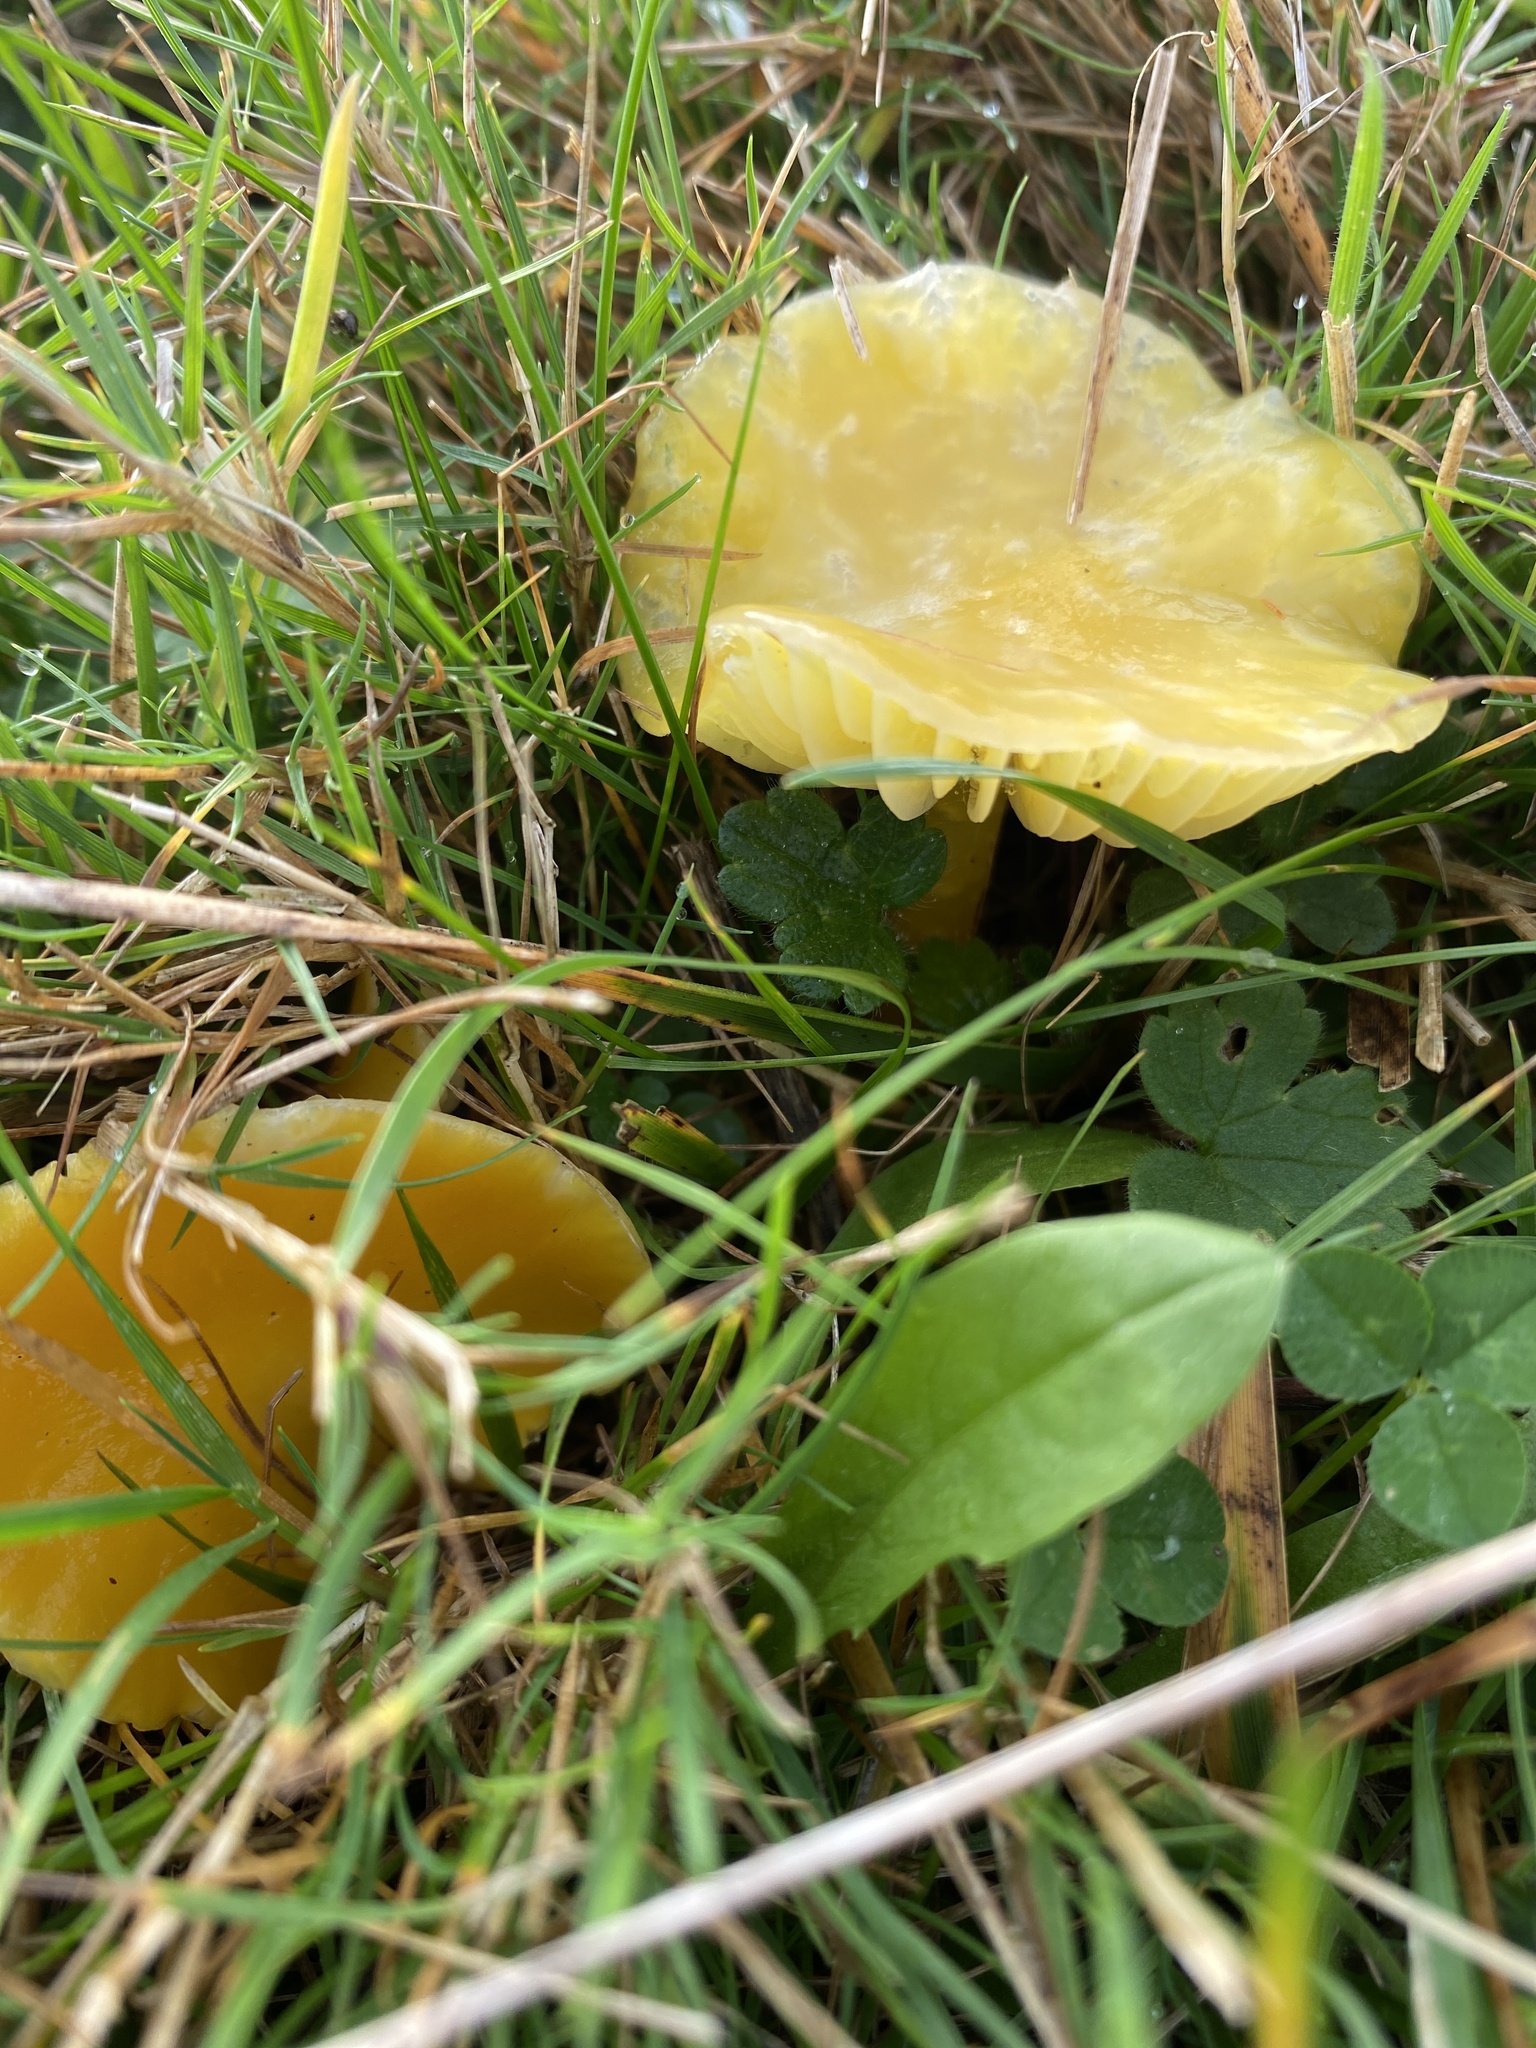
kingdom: Fungi
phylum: Basidiomycota
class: Agaricomycetes
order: Agaricales
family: Hygrophoraceae
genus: Hygrocybe
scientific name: Hygrocybe chlorophana
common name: Golden waxcap
